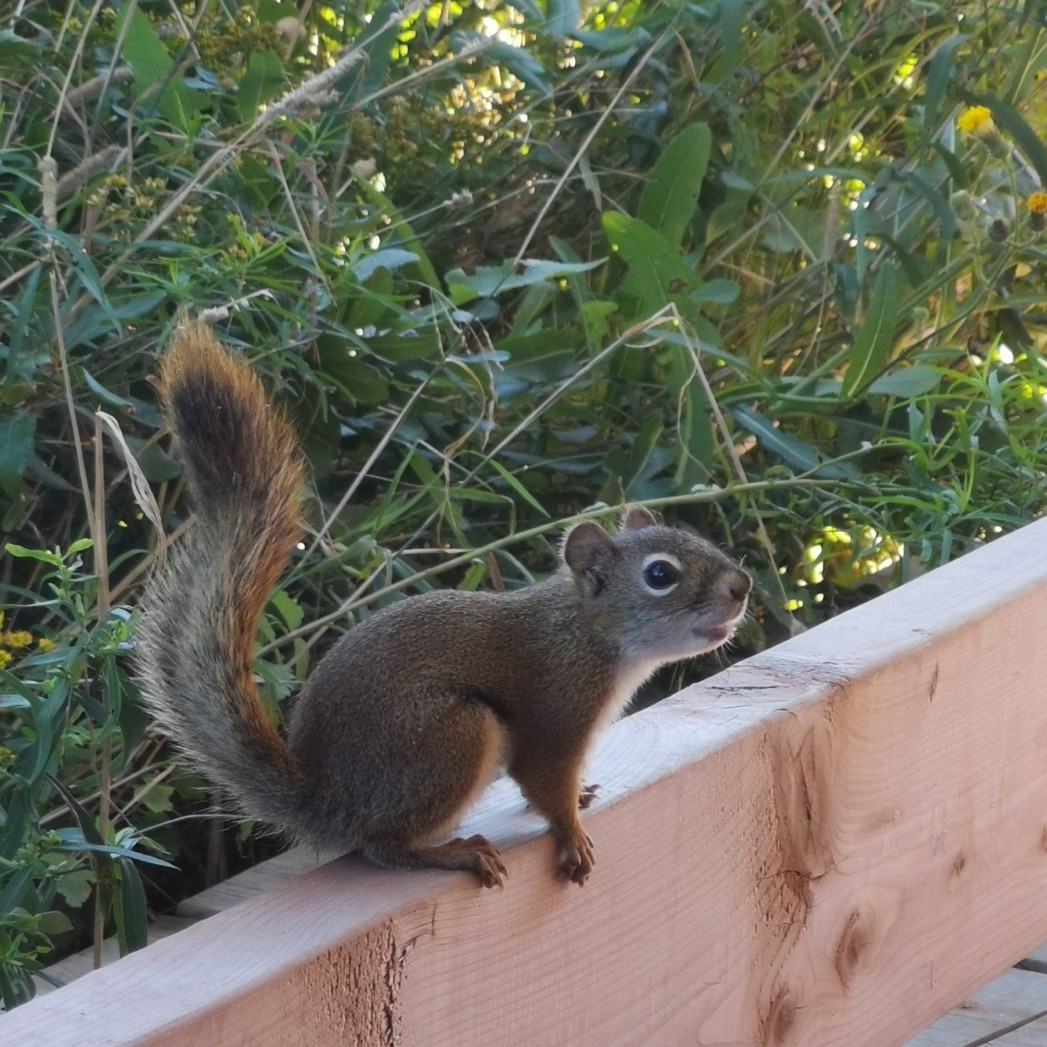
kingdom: Animalia
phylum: Chordata
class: Mammalia
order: Rodentia
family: Sciuridae
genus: Tamiasciurus
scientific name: Tamiasciurus hudsonicus
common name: Red squirrel
